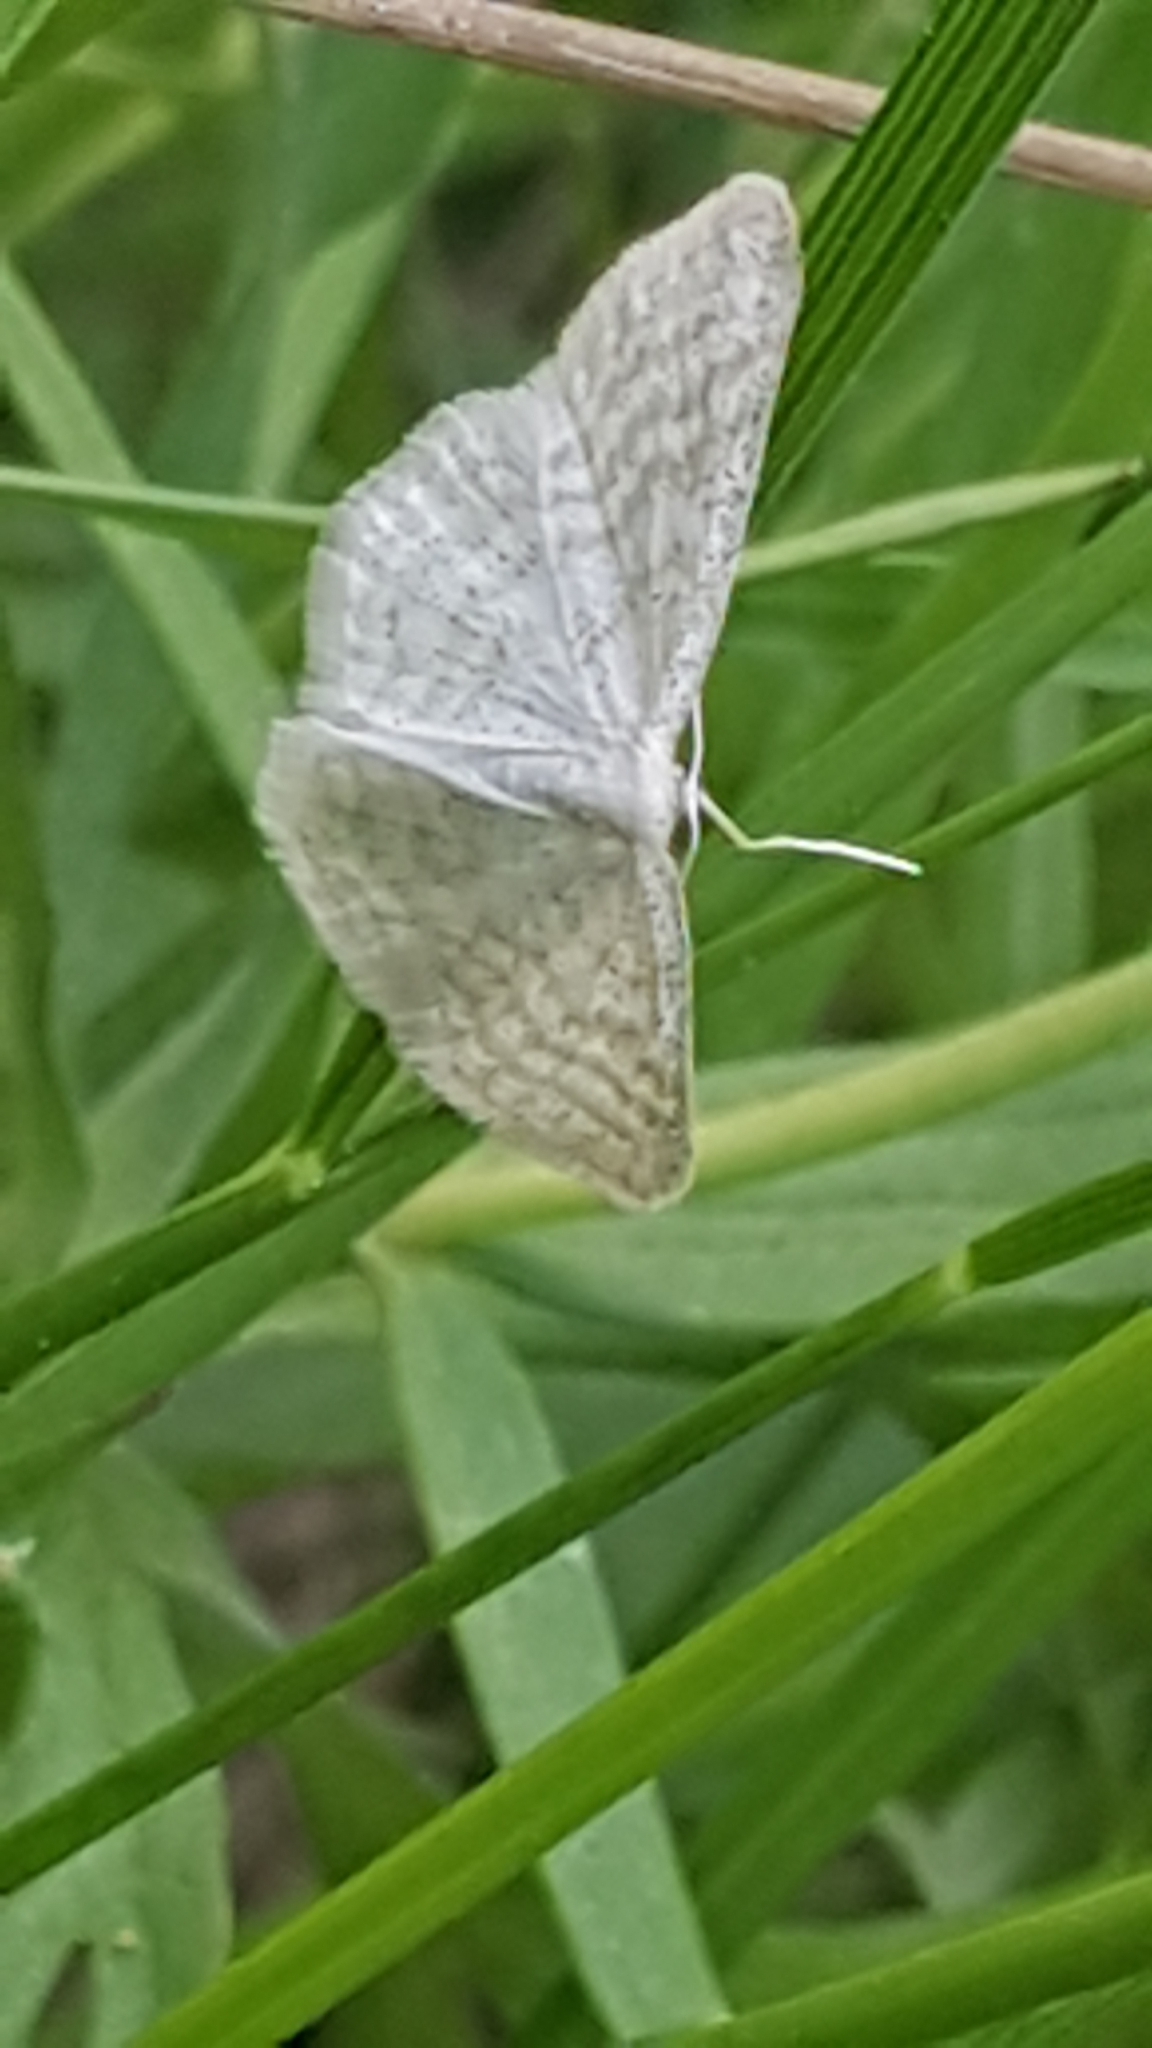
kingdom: Animalia
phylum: Arthropoda
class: Insecta
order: Lepidoptera
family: Geometridae
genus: Idaea
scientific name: Idaea pallidata
